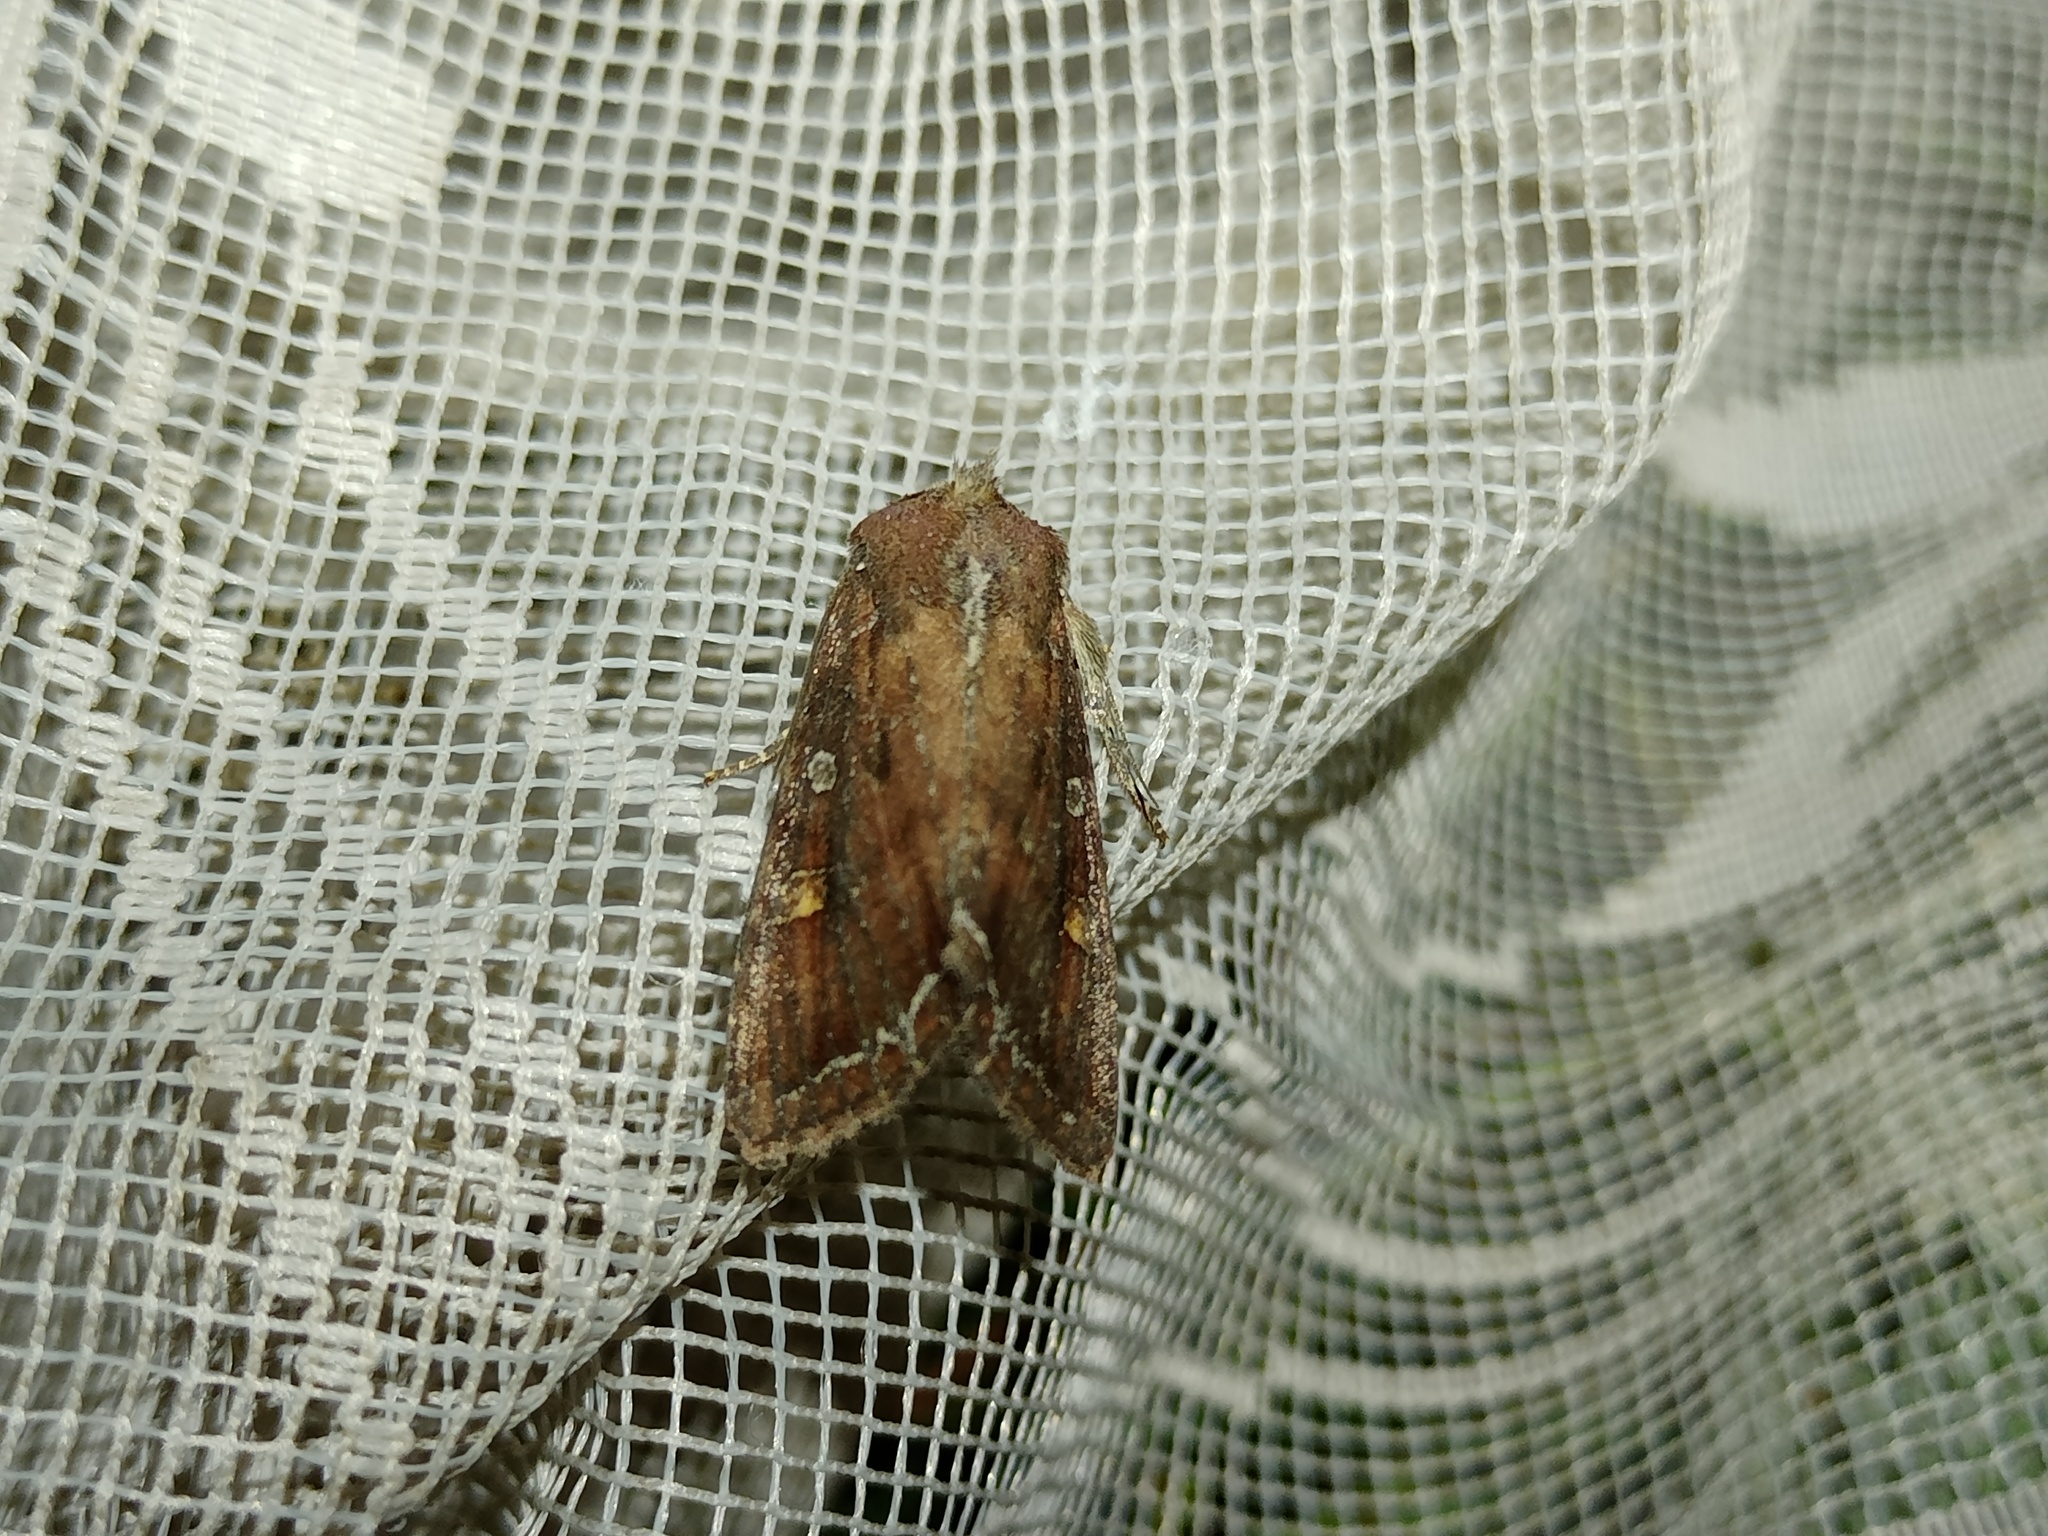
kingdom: Animalia
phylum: Arthropoda
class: Insecta
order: Lepidoptera
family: Noctuidae
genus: Lacanobia
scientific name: Lacanobia oleracea
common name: Bright-line brown-eye
